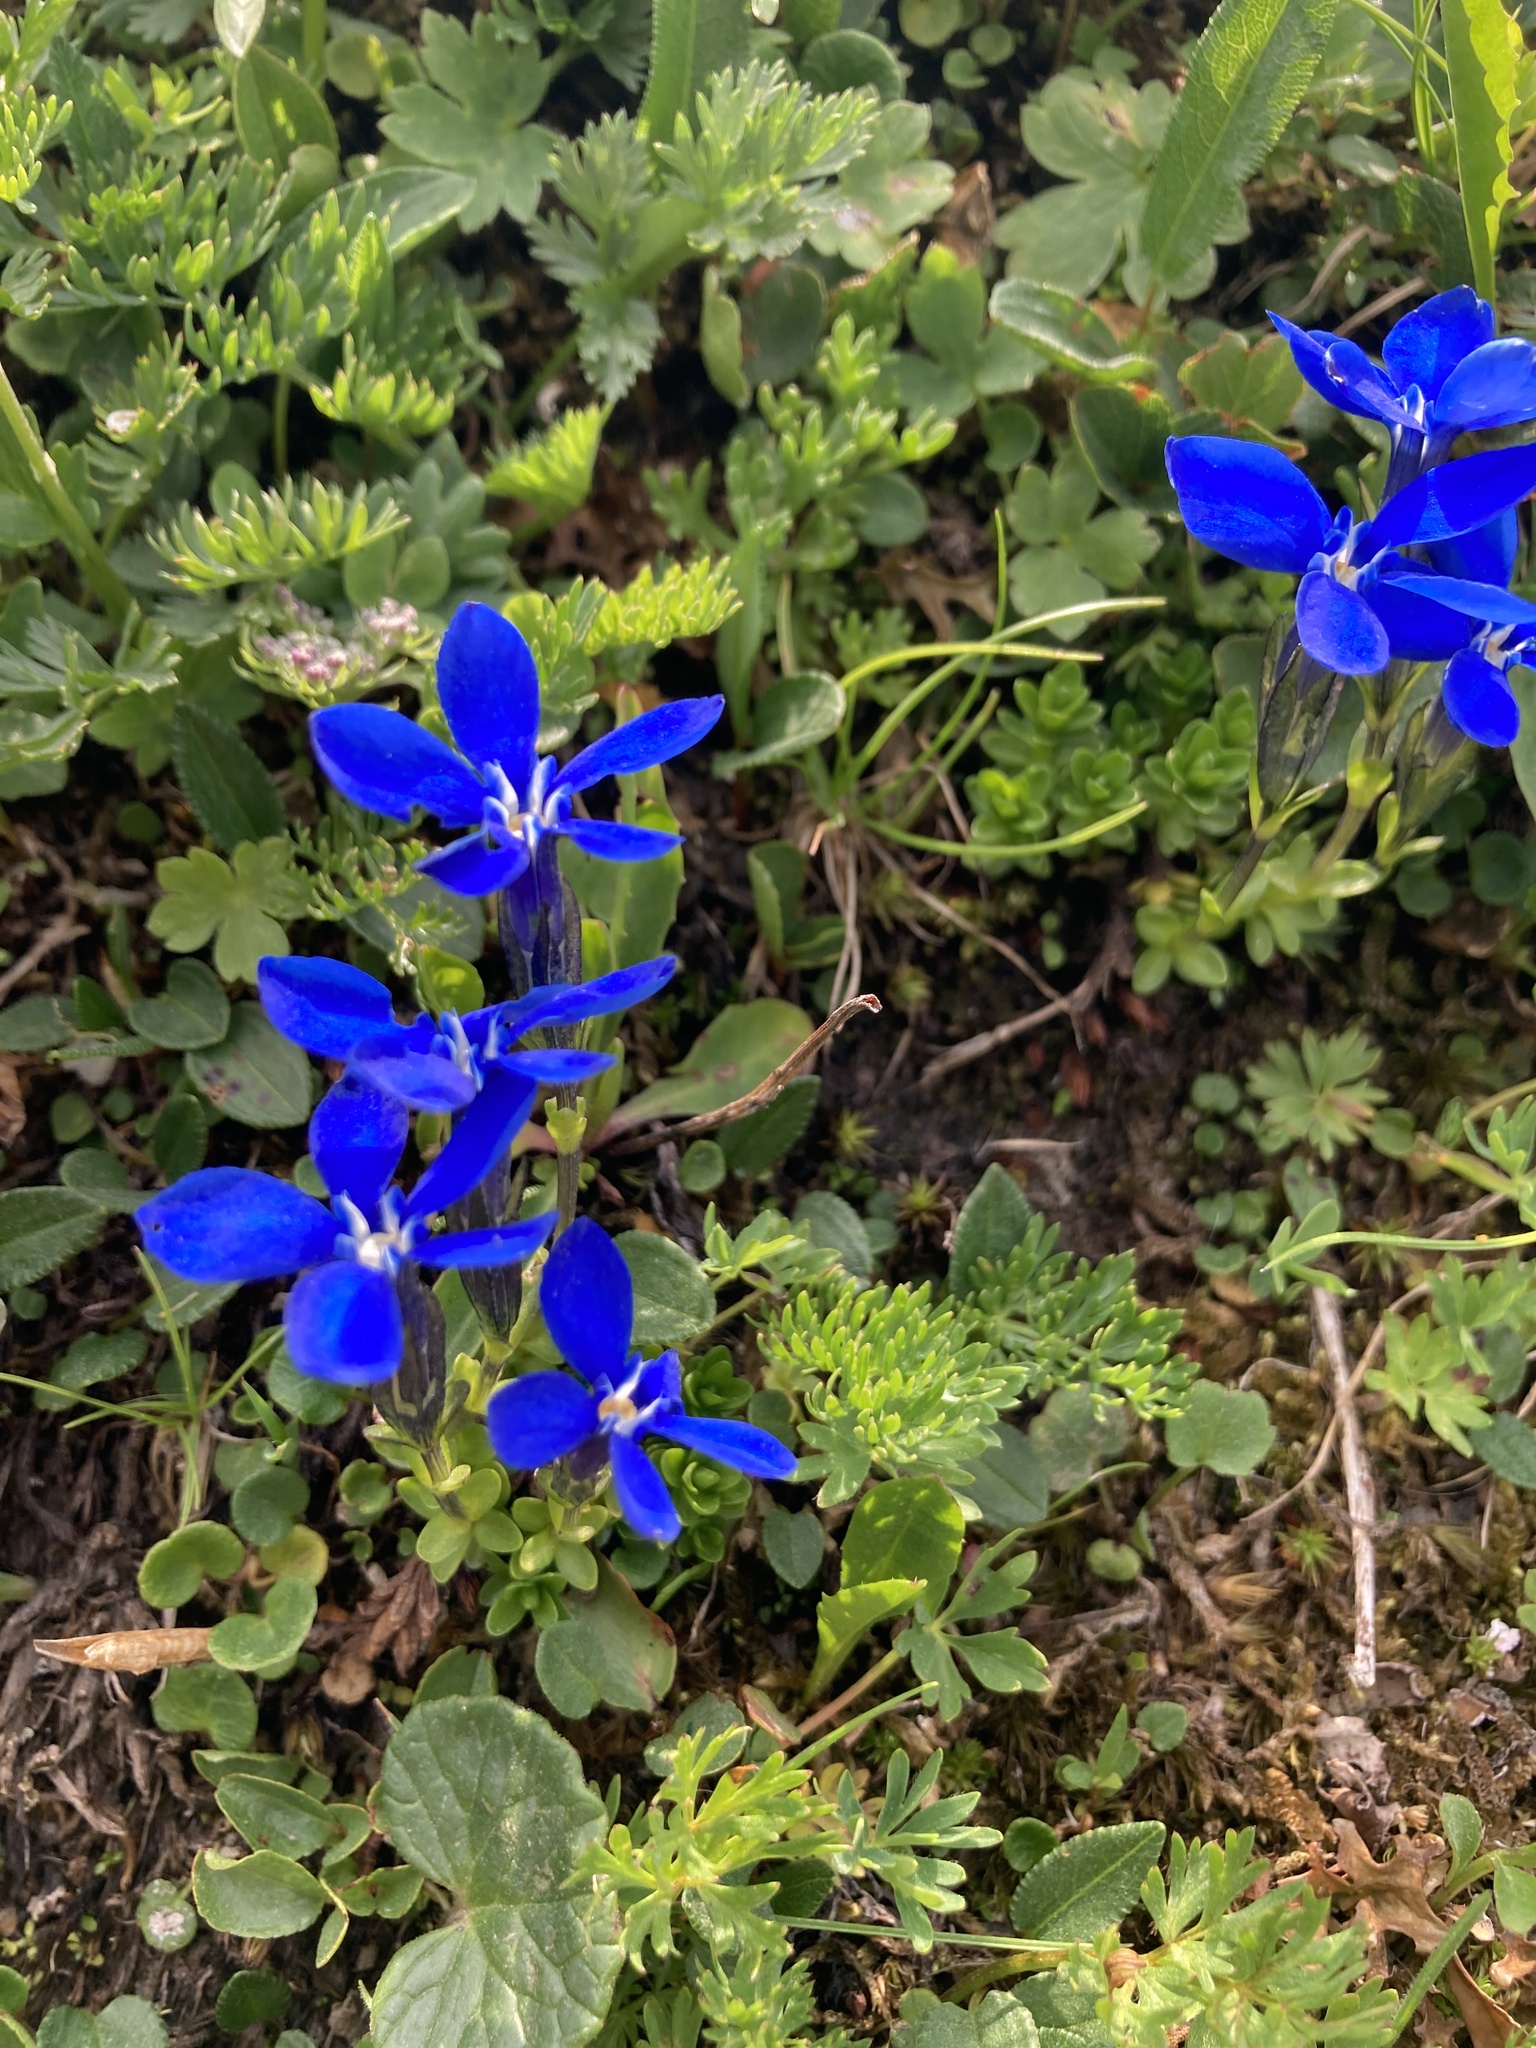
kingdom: Plantae
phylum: Tracheophyta
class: Magnoliopsida
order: Gentianales
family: Gentianaceae
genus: Gentiana
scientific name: Gentiana bavarica
